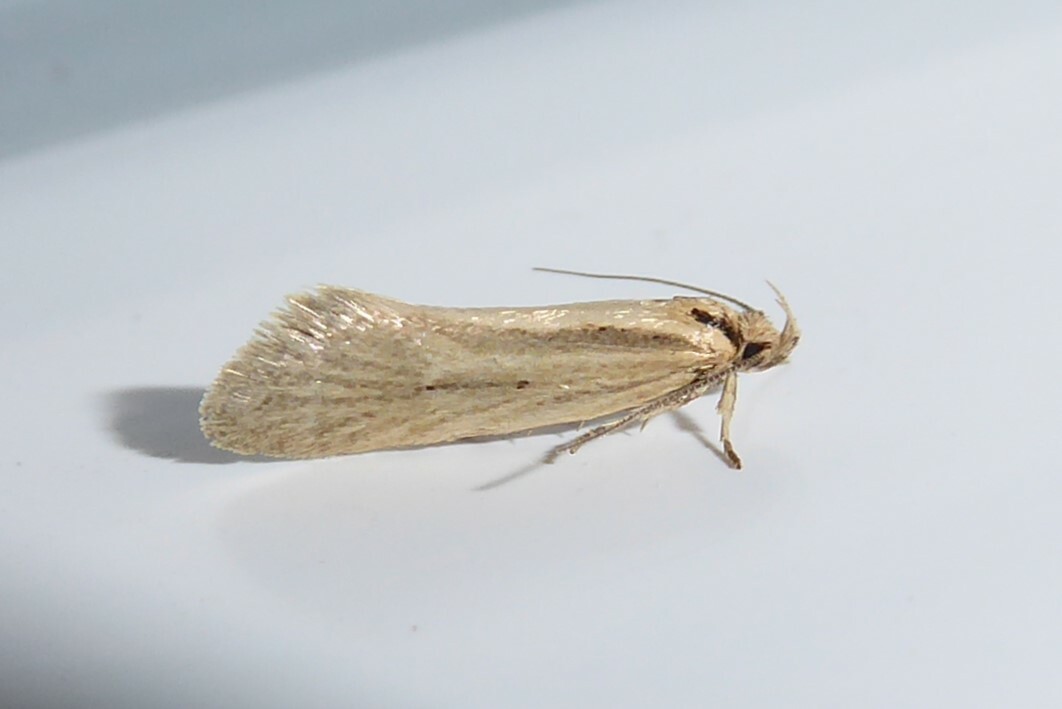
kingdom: Animalia
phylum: Arthropoda
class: Insecta
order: Lepidoptera
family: Oecophoridae
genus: Tingena
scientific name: Tingena chloradelpha
